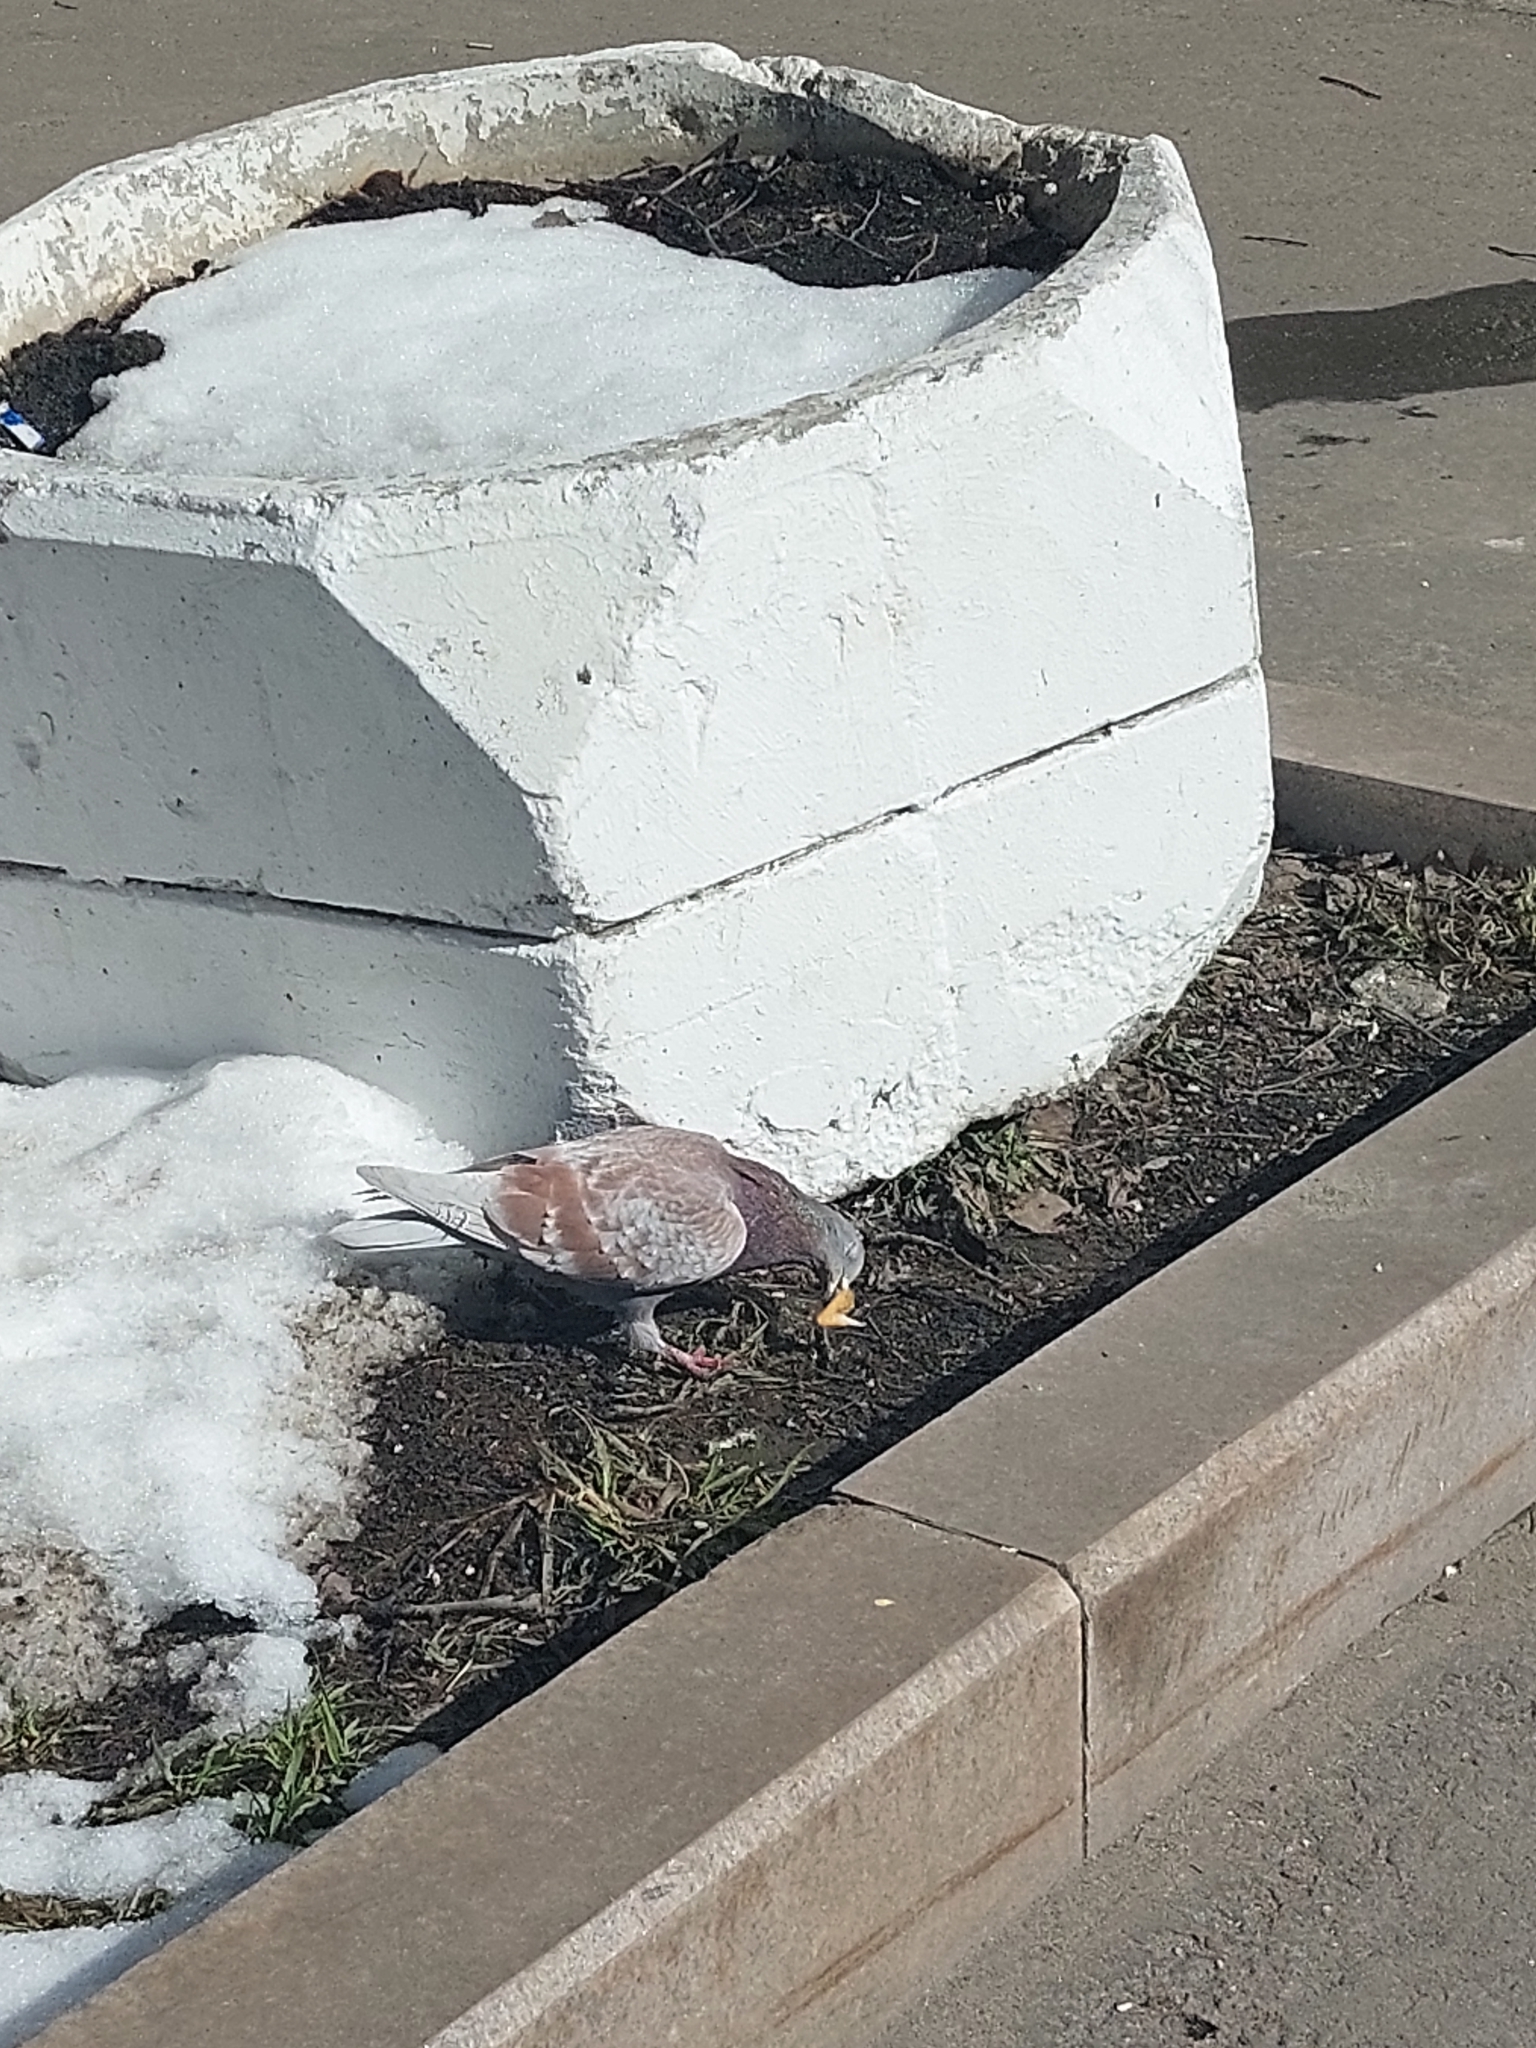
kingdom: Animalia
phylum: Chordata
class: Aves
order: Columbiformes
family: Columbidae
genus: Columba
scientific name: Columba livia
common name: Rock pigeon
